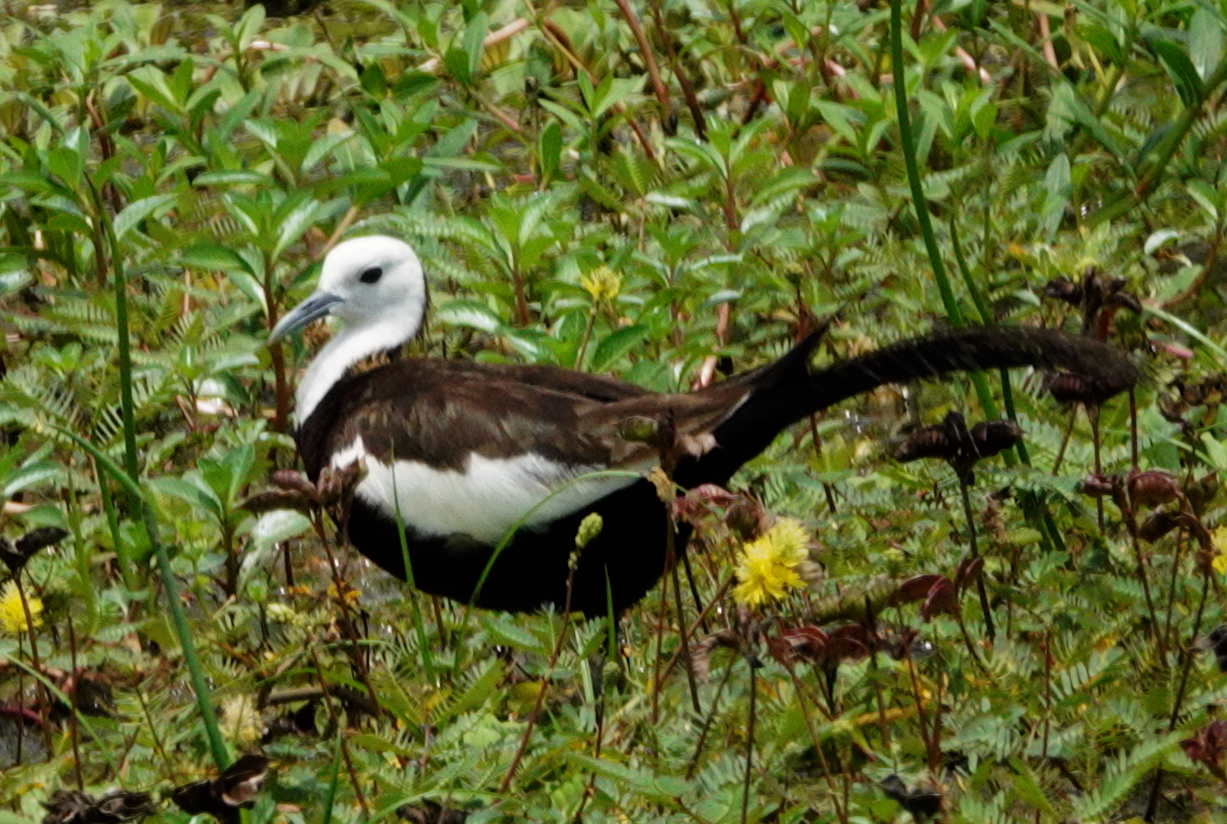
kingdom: Animalia
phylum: Chordata
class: Aves
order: Charadriiformes
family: Jacanidae
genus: Hydrophasianus
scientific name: Hydrophasianus chirurgus
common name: Pheasant-tailed jacana
